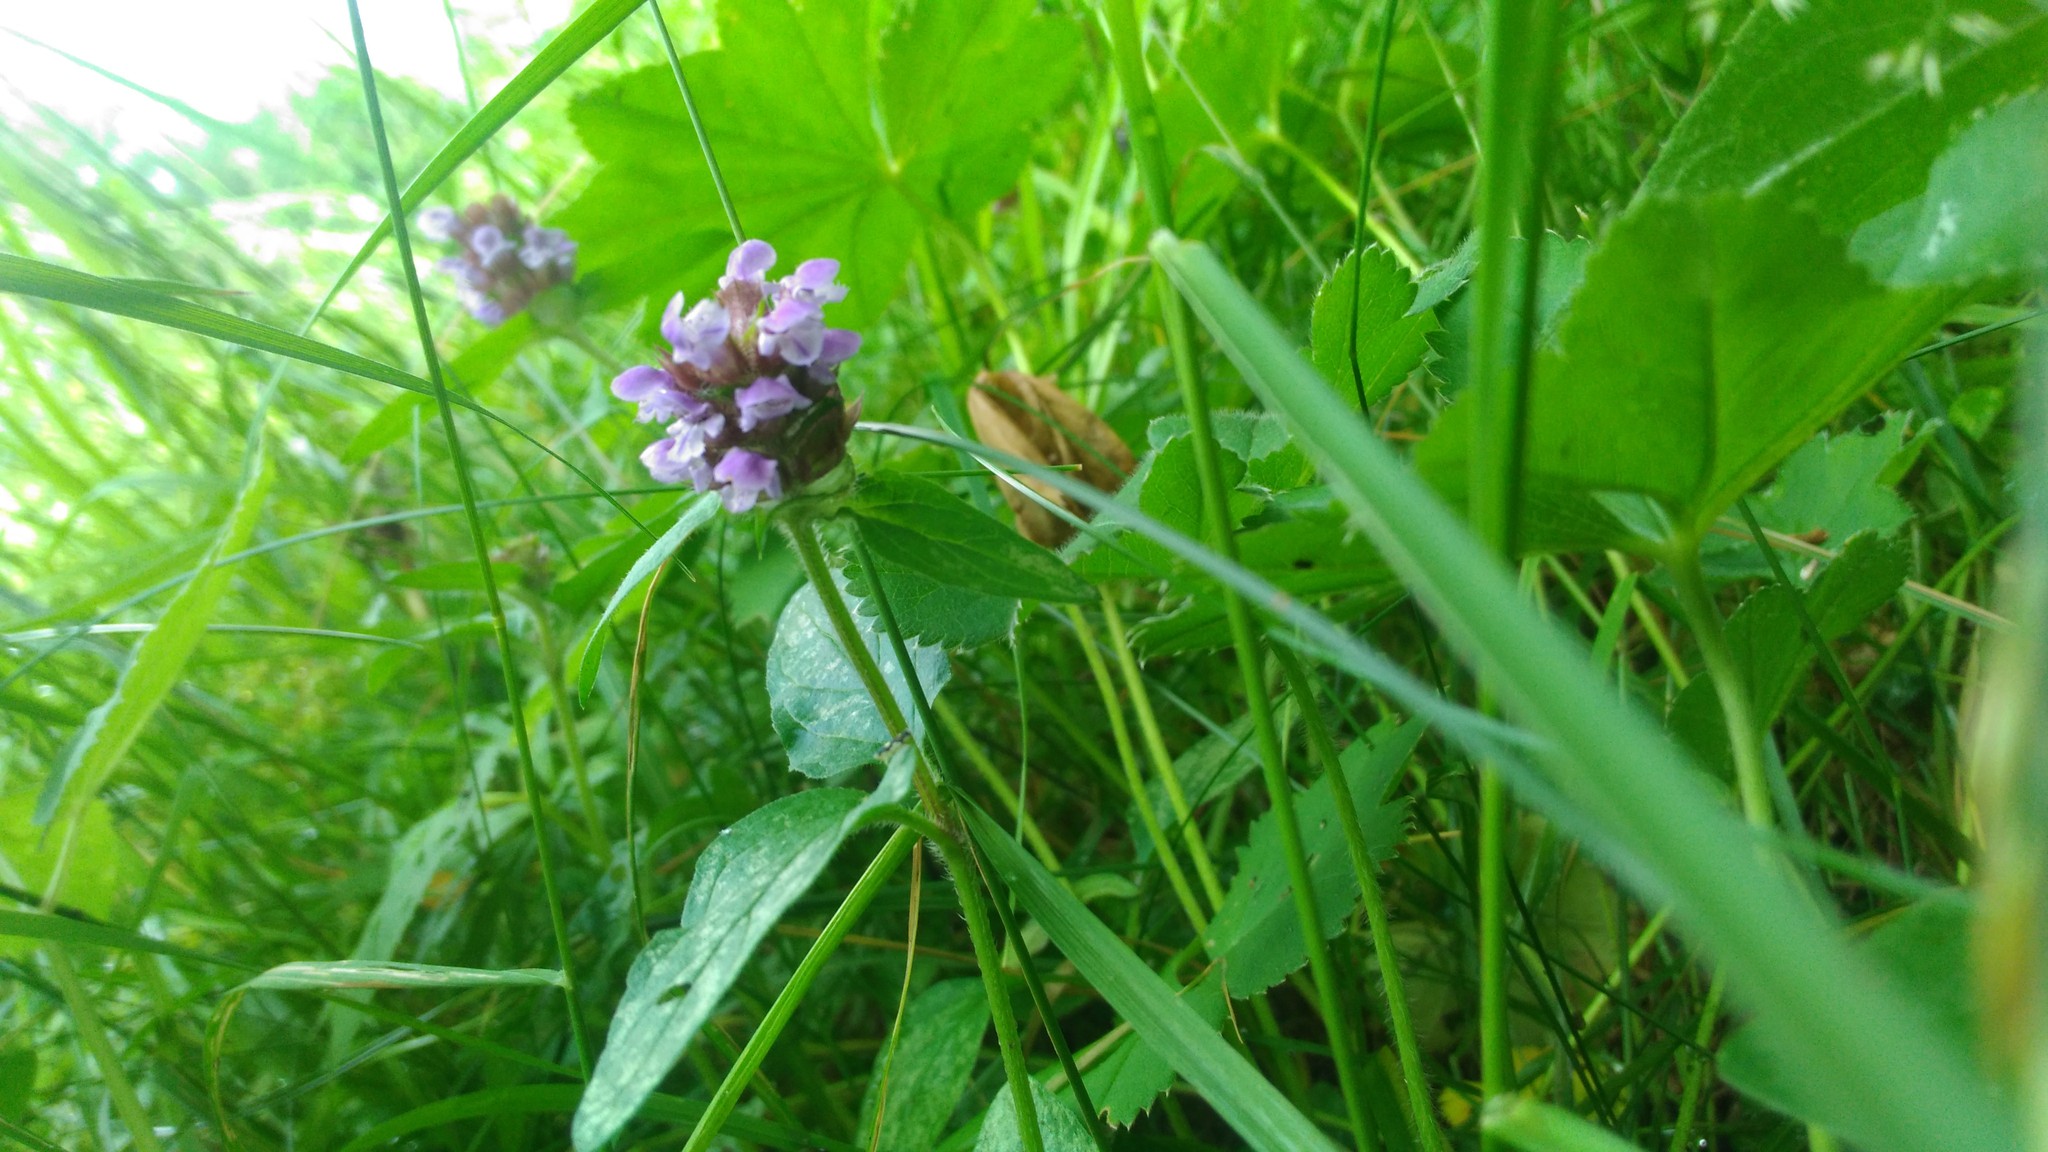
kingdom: Plantae
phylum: Tracheophyta
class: Magnoliopsida
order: Lamiales
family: Lamiaceae
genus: Prunella
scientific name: Prunella vulgaris
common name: Heal-all
